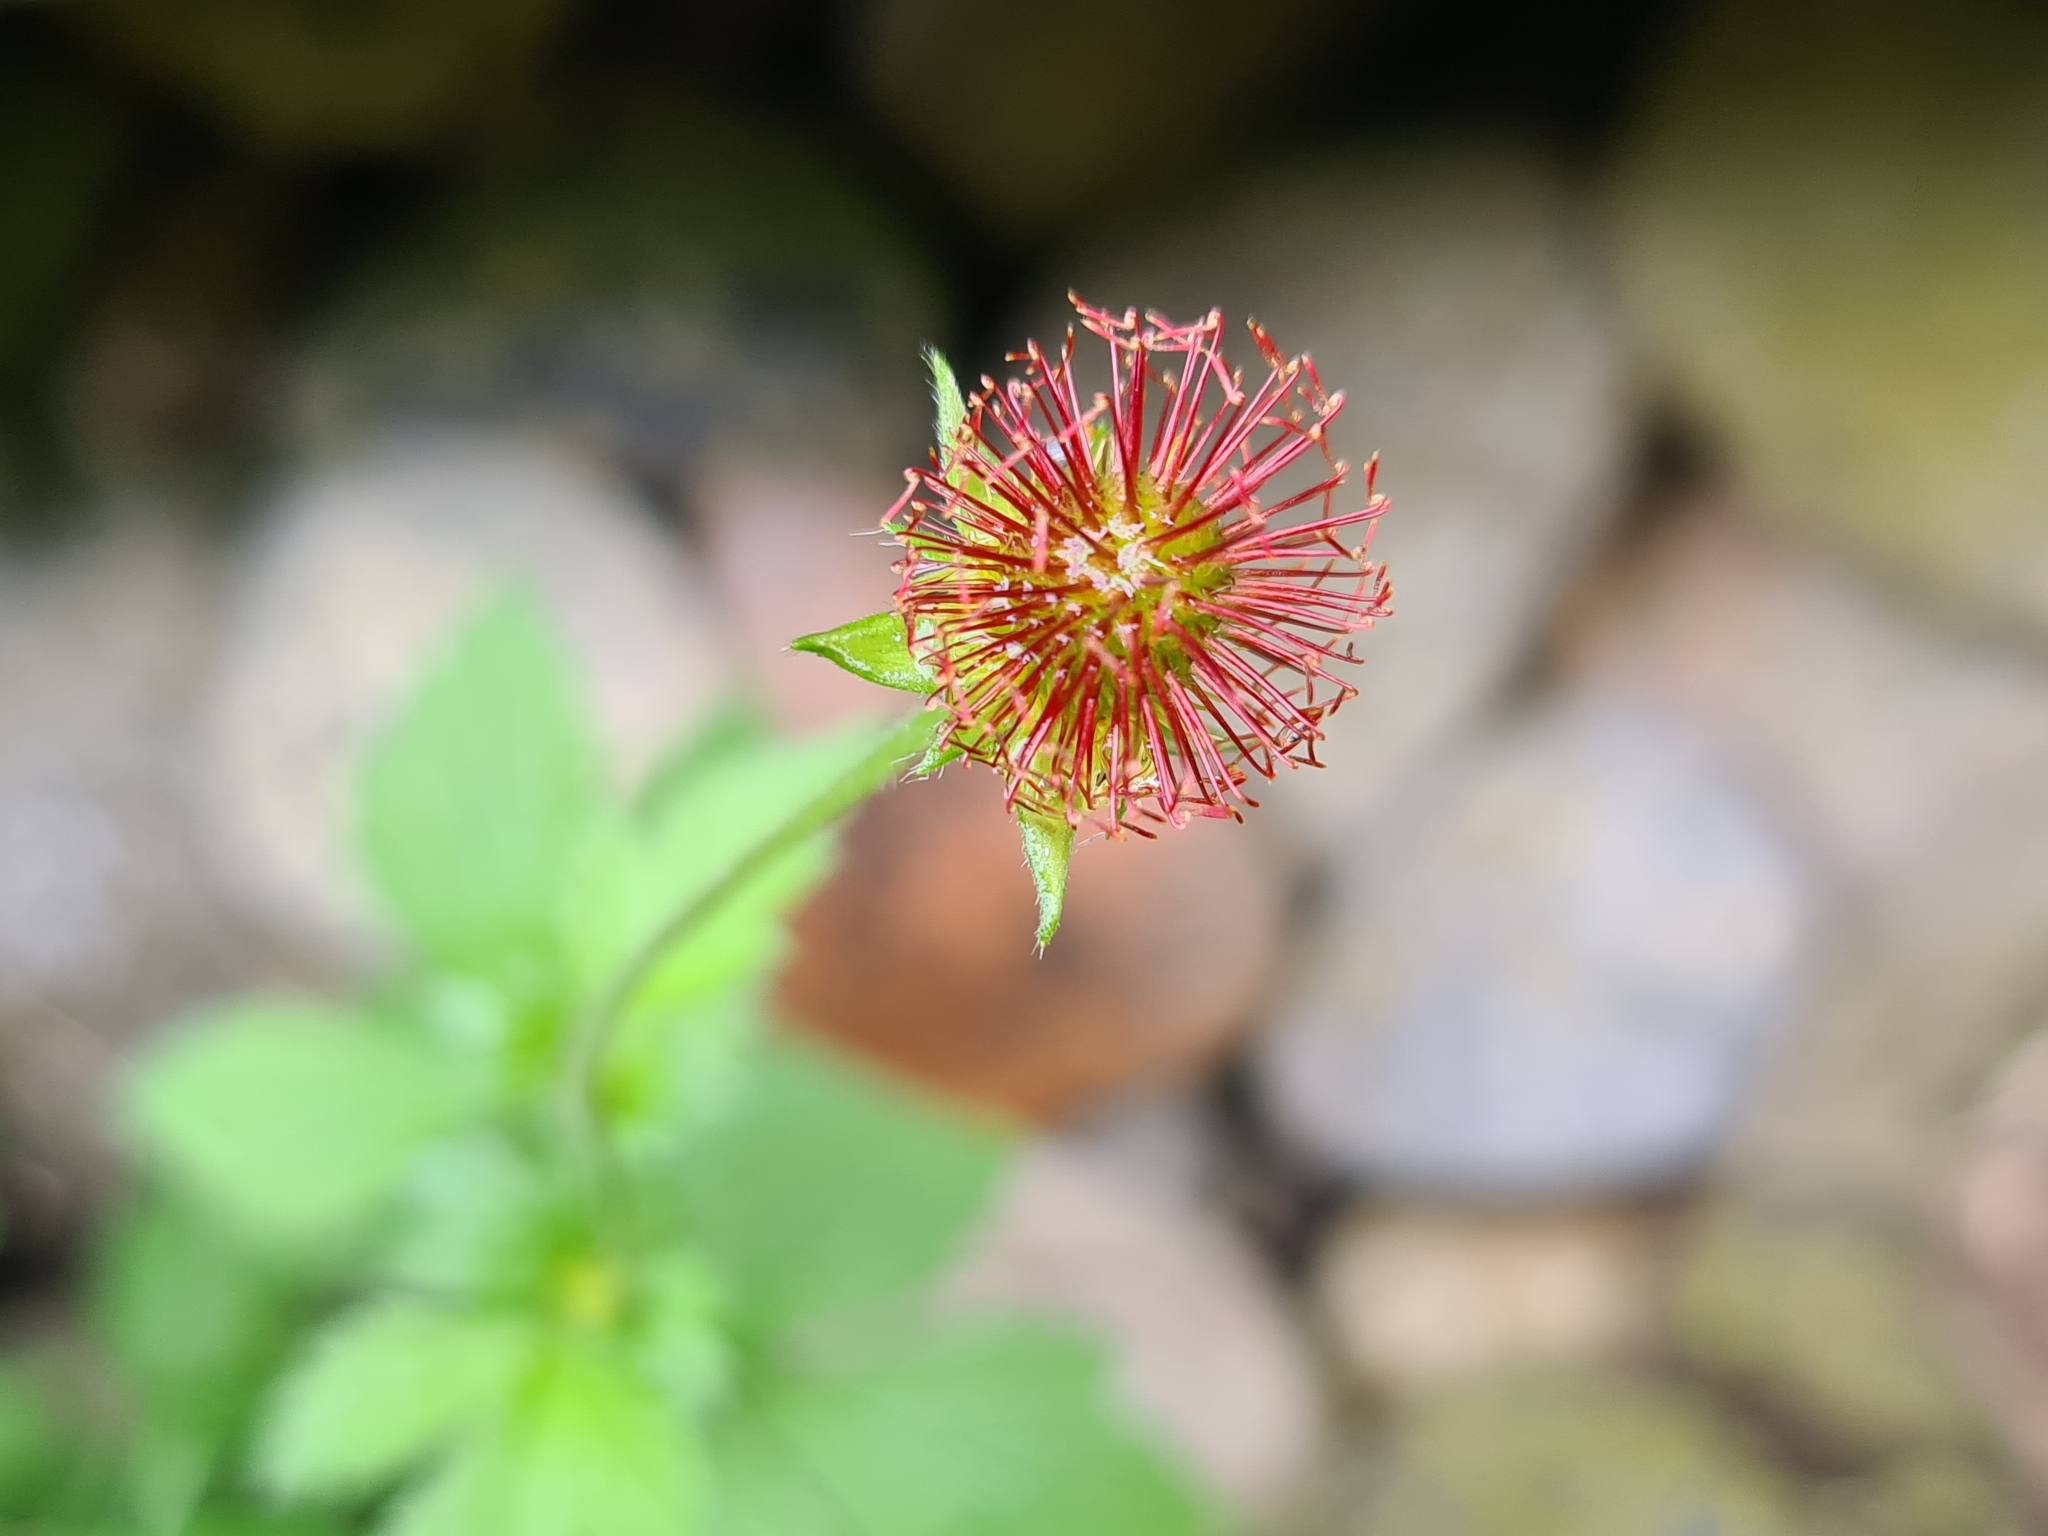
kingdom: Plantae
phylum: Tracheophyta
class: Magnoliopsida
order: Rosales
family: Rosaceae
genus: Geum
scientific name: Geum urbanum
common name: Wood avens
